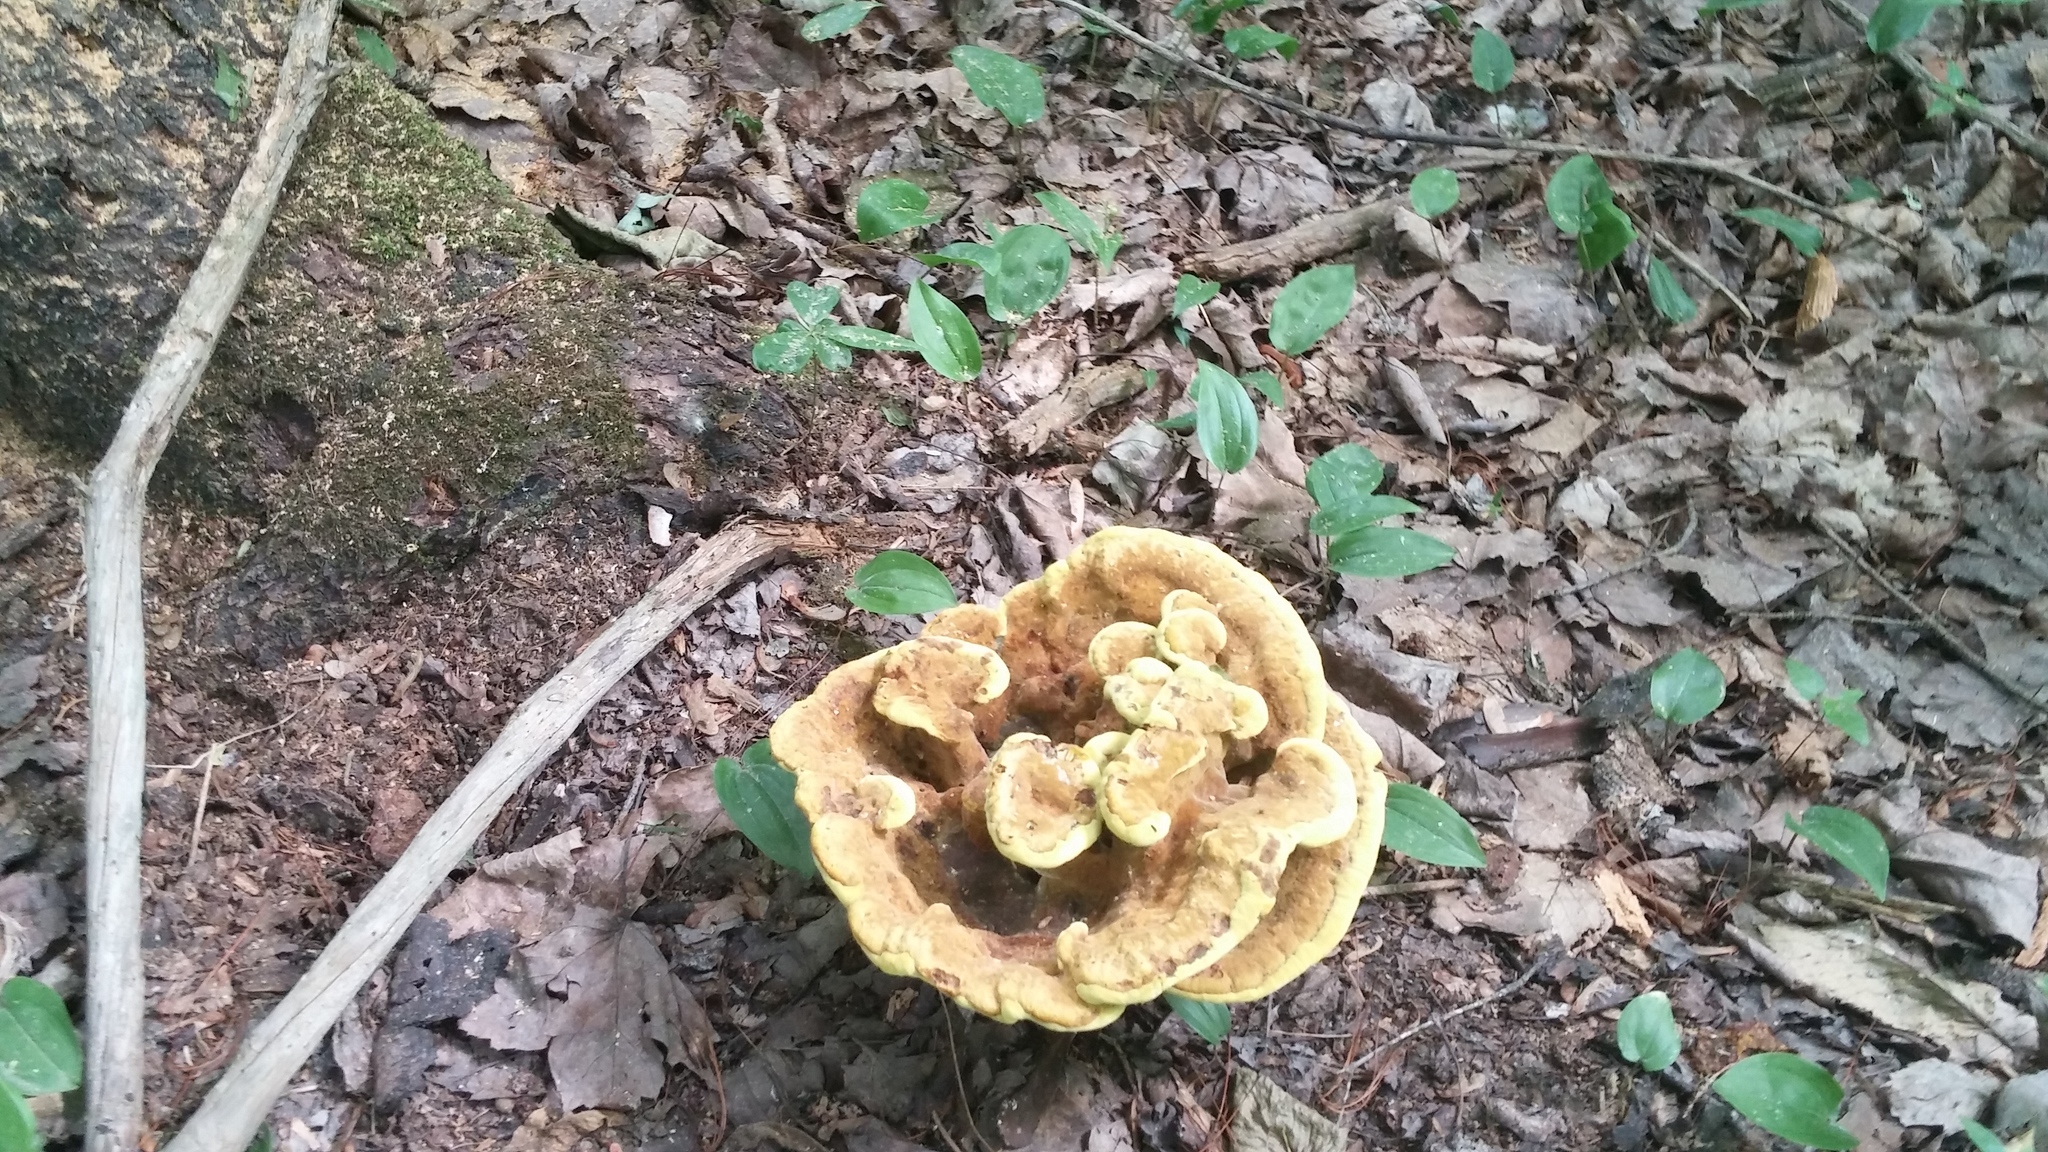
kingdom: Fungi
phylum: Basidiomycota
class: Agaricomycetes
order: Polyporales
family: Laetiporaceae
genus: Phaeolus
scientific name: Phaeolus schweinitzii
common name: Dyer's mazegill
